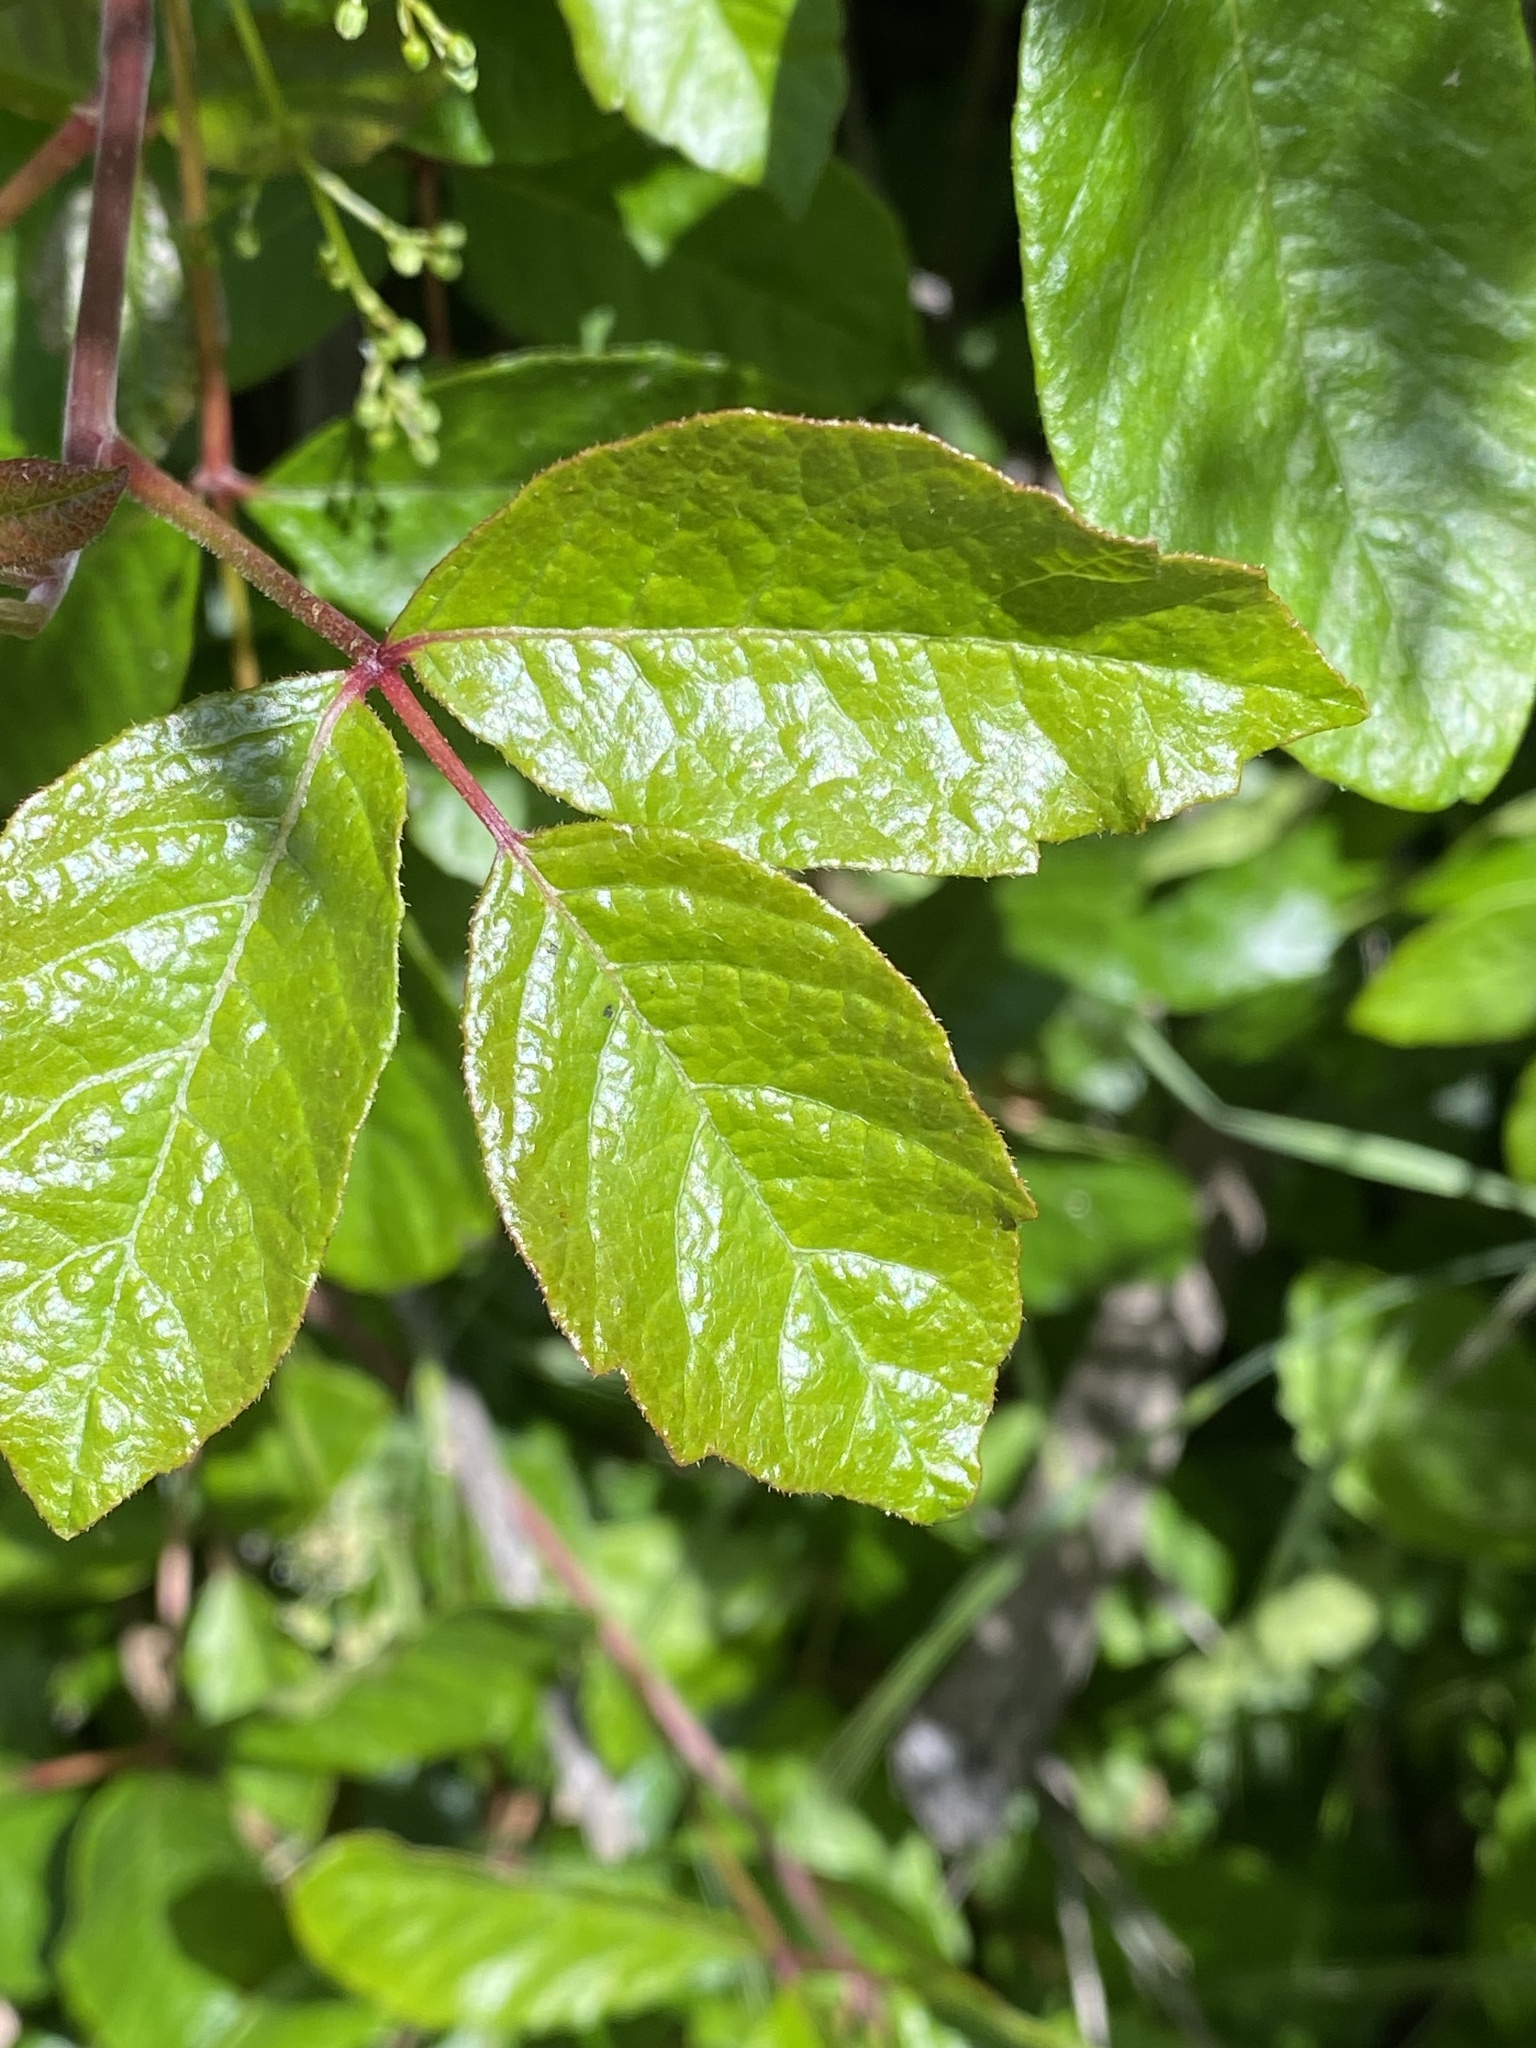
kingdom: Plantae
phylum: Tracheophyta
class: Magnoliopsida
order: Sapindales
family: Anacardiaceae
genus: Toxicodendron
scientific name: Toxicodendron diversilobum
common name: Pacific poison-oak
